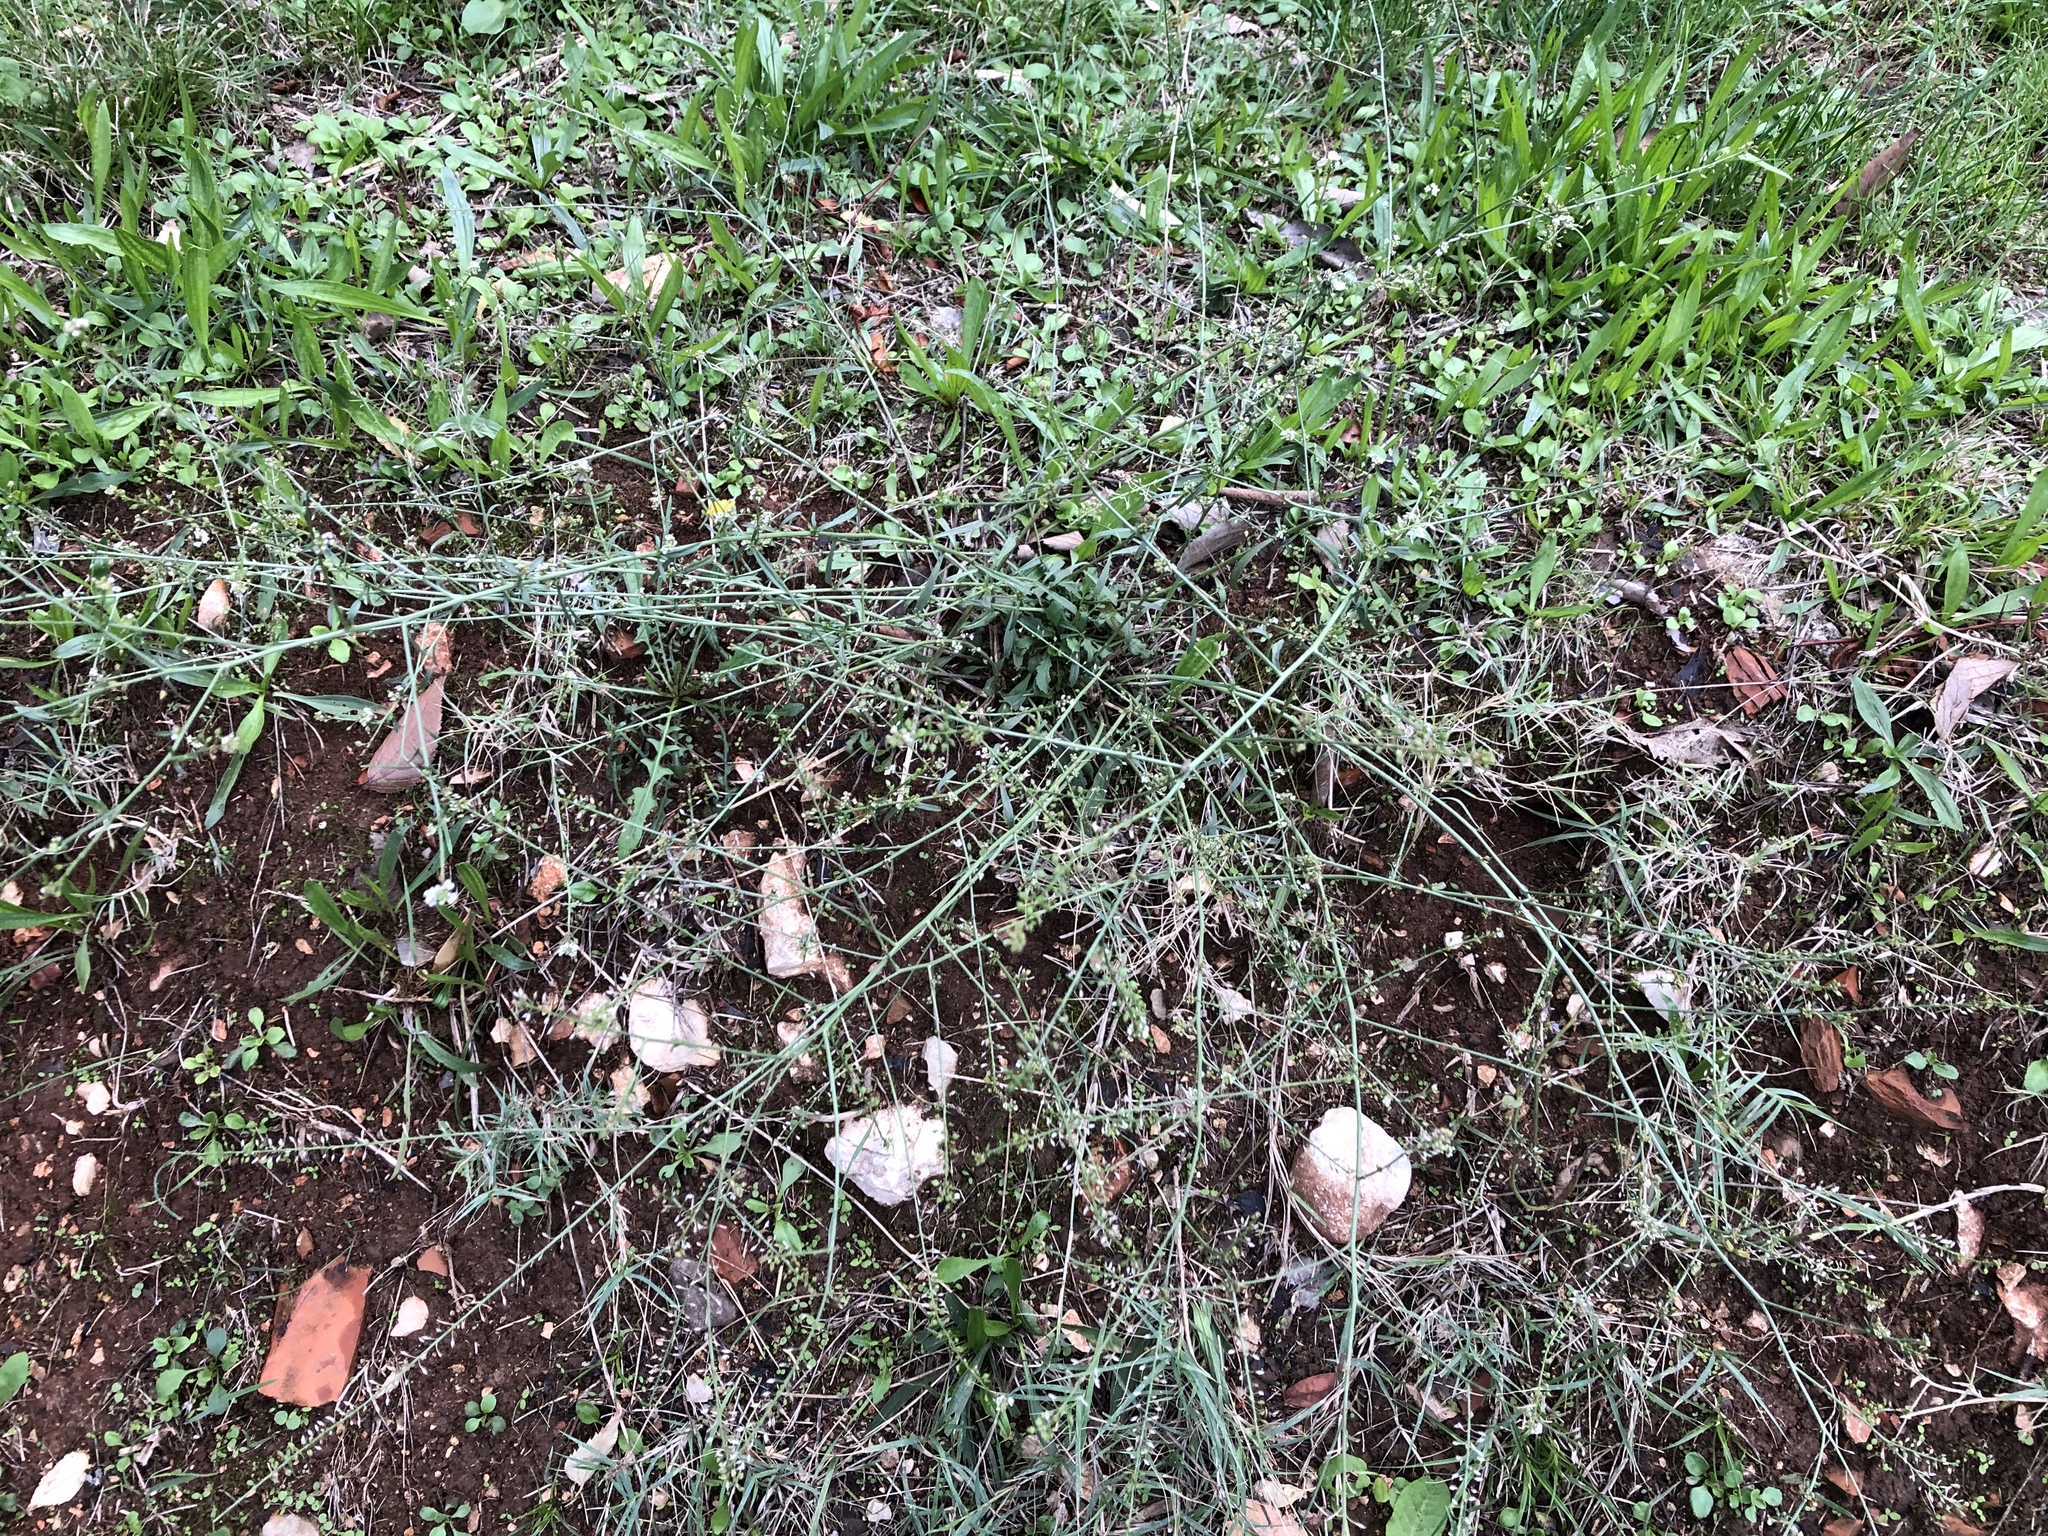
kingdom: Plantae
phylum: Tracheophyta
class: Magnoliopsida
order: Lamiales
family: Verbenaceae
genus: Verbena
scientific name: Verbena officinalis
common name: Vervain
